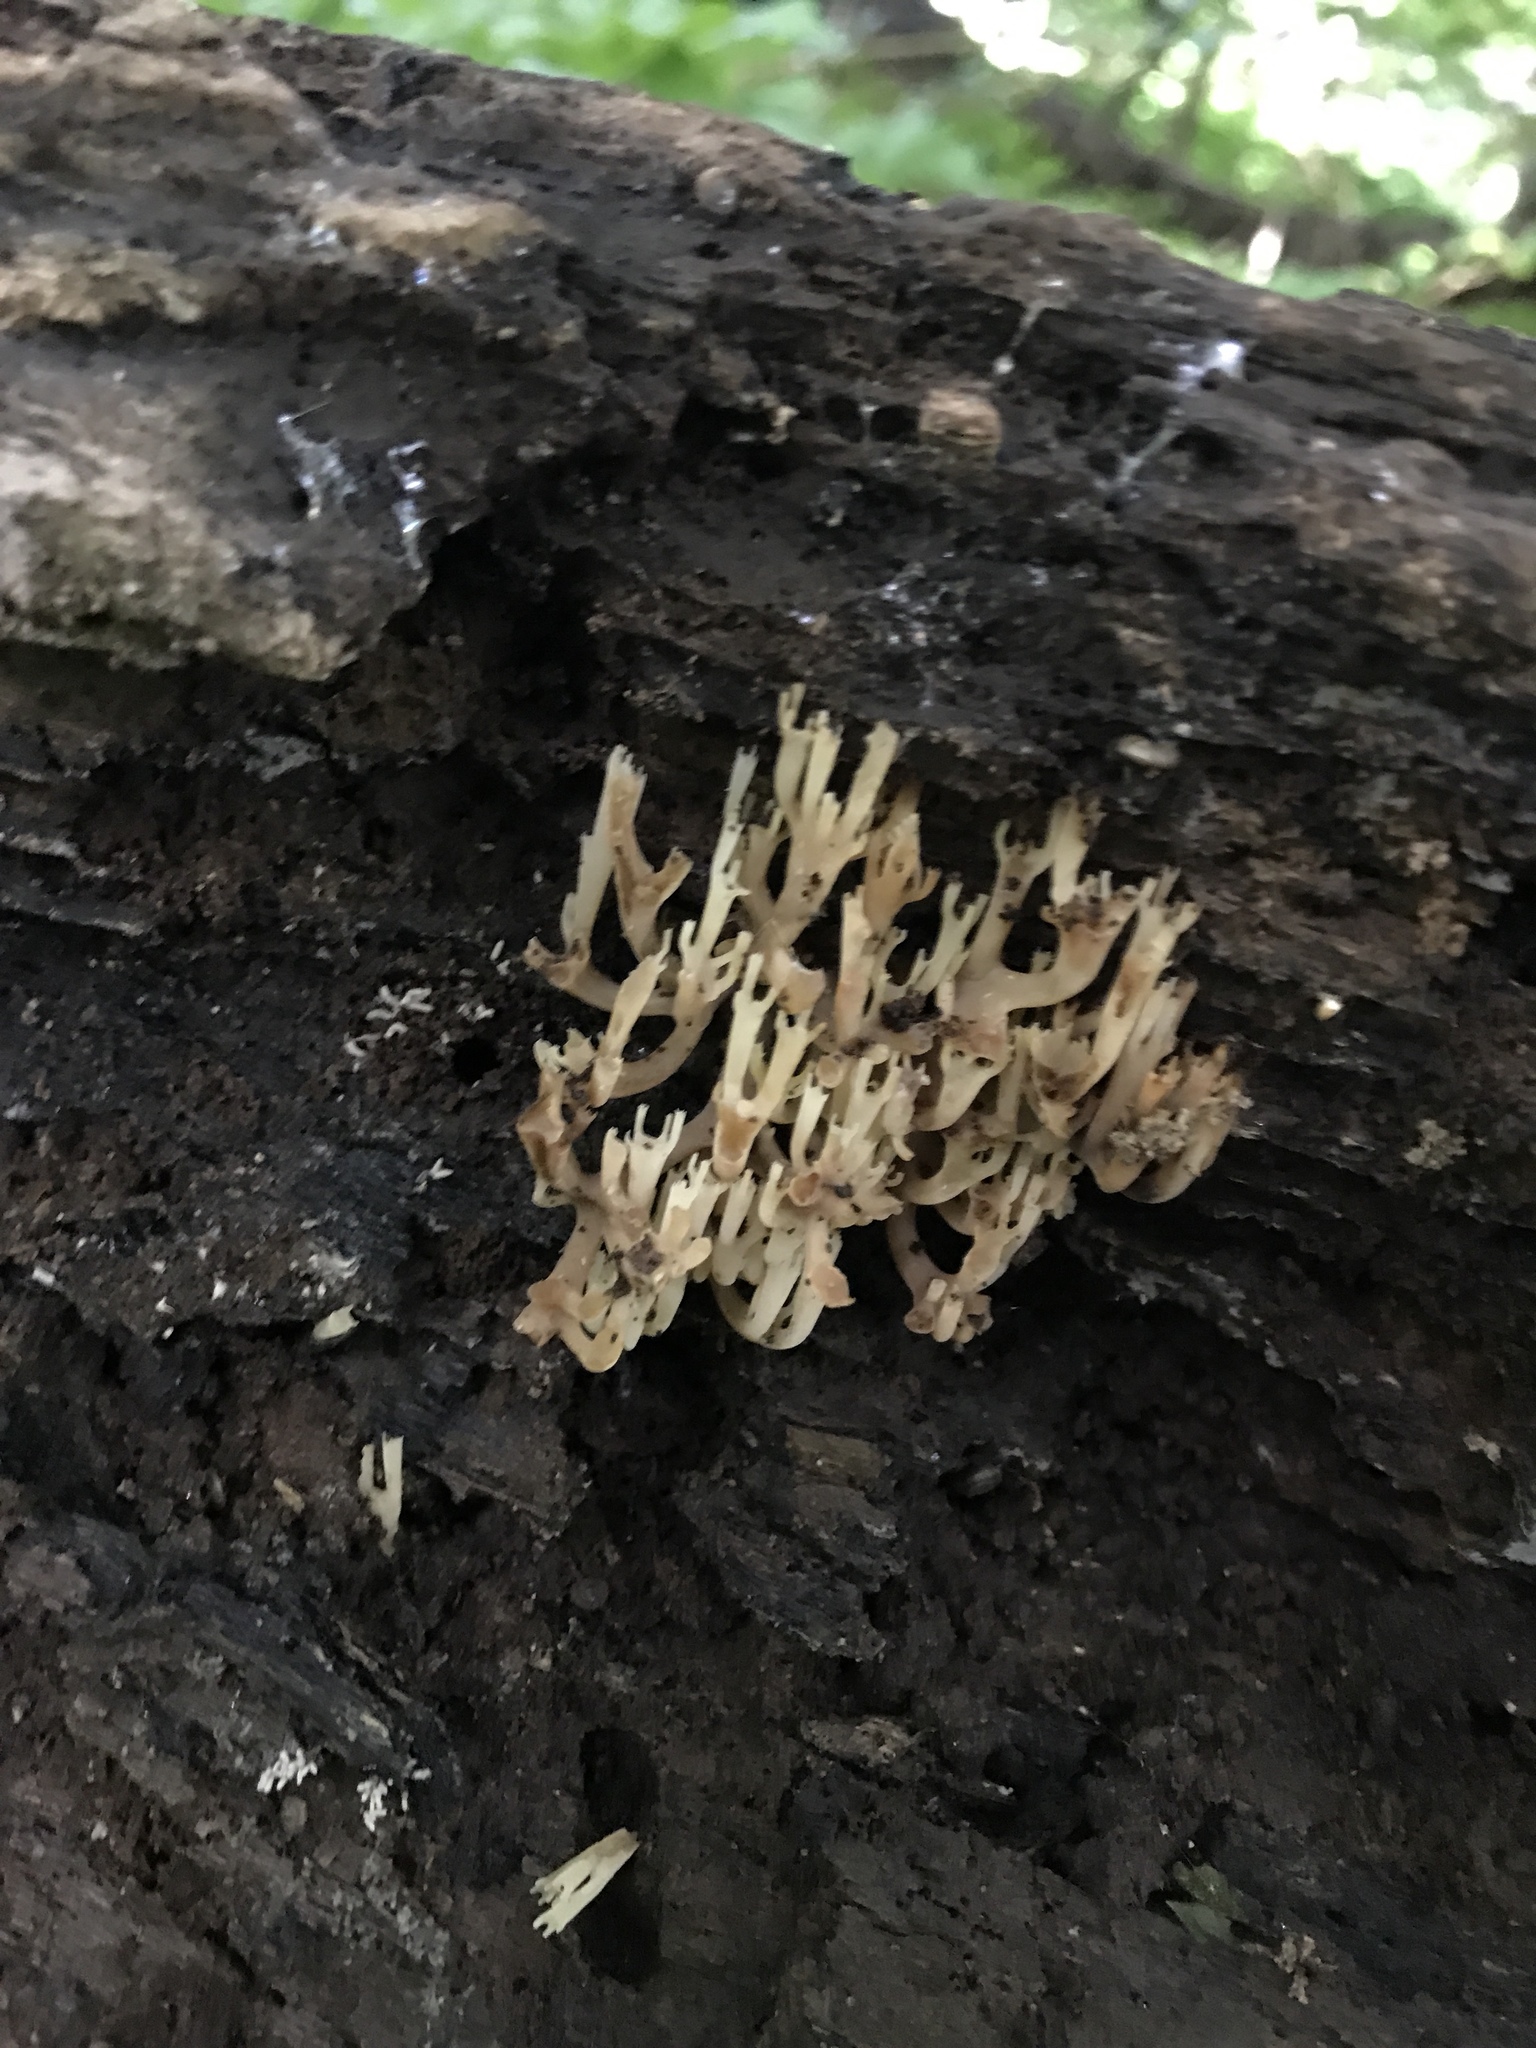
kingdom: Fungi
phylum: Basidiomycota
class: Agaricomycetes
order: Russulales
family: Auriscalpiaceae
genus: Artomyces
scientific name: Artomyces pyxidatus
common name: Crown-tipped coral fungus
